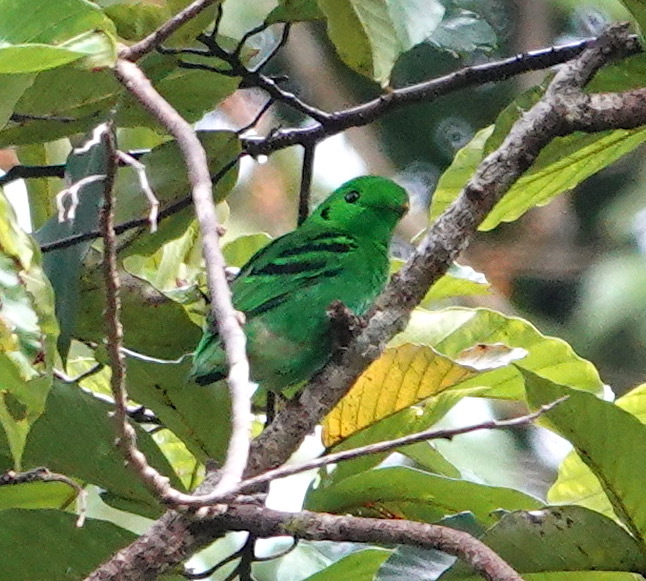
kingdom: Animalia
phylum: Chordata
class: Aves
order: Passeriformes
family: Eurylaimidae
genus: Calyptomena
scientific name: Calyptomena viridis
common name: Green broadbill
